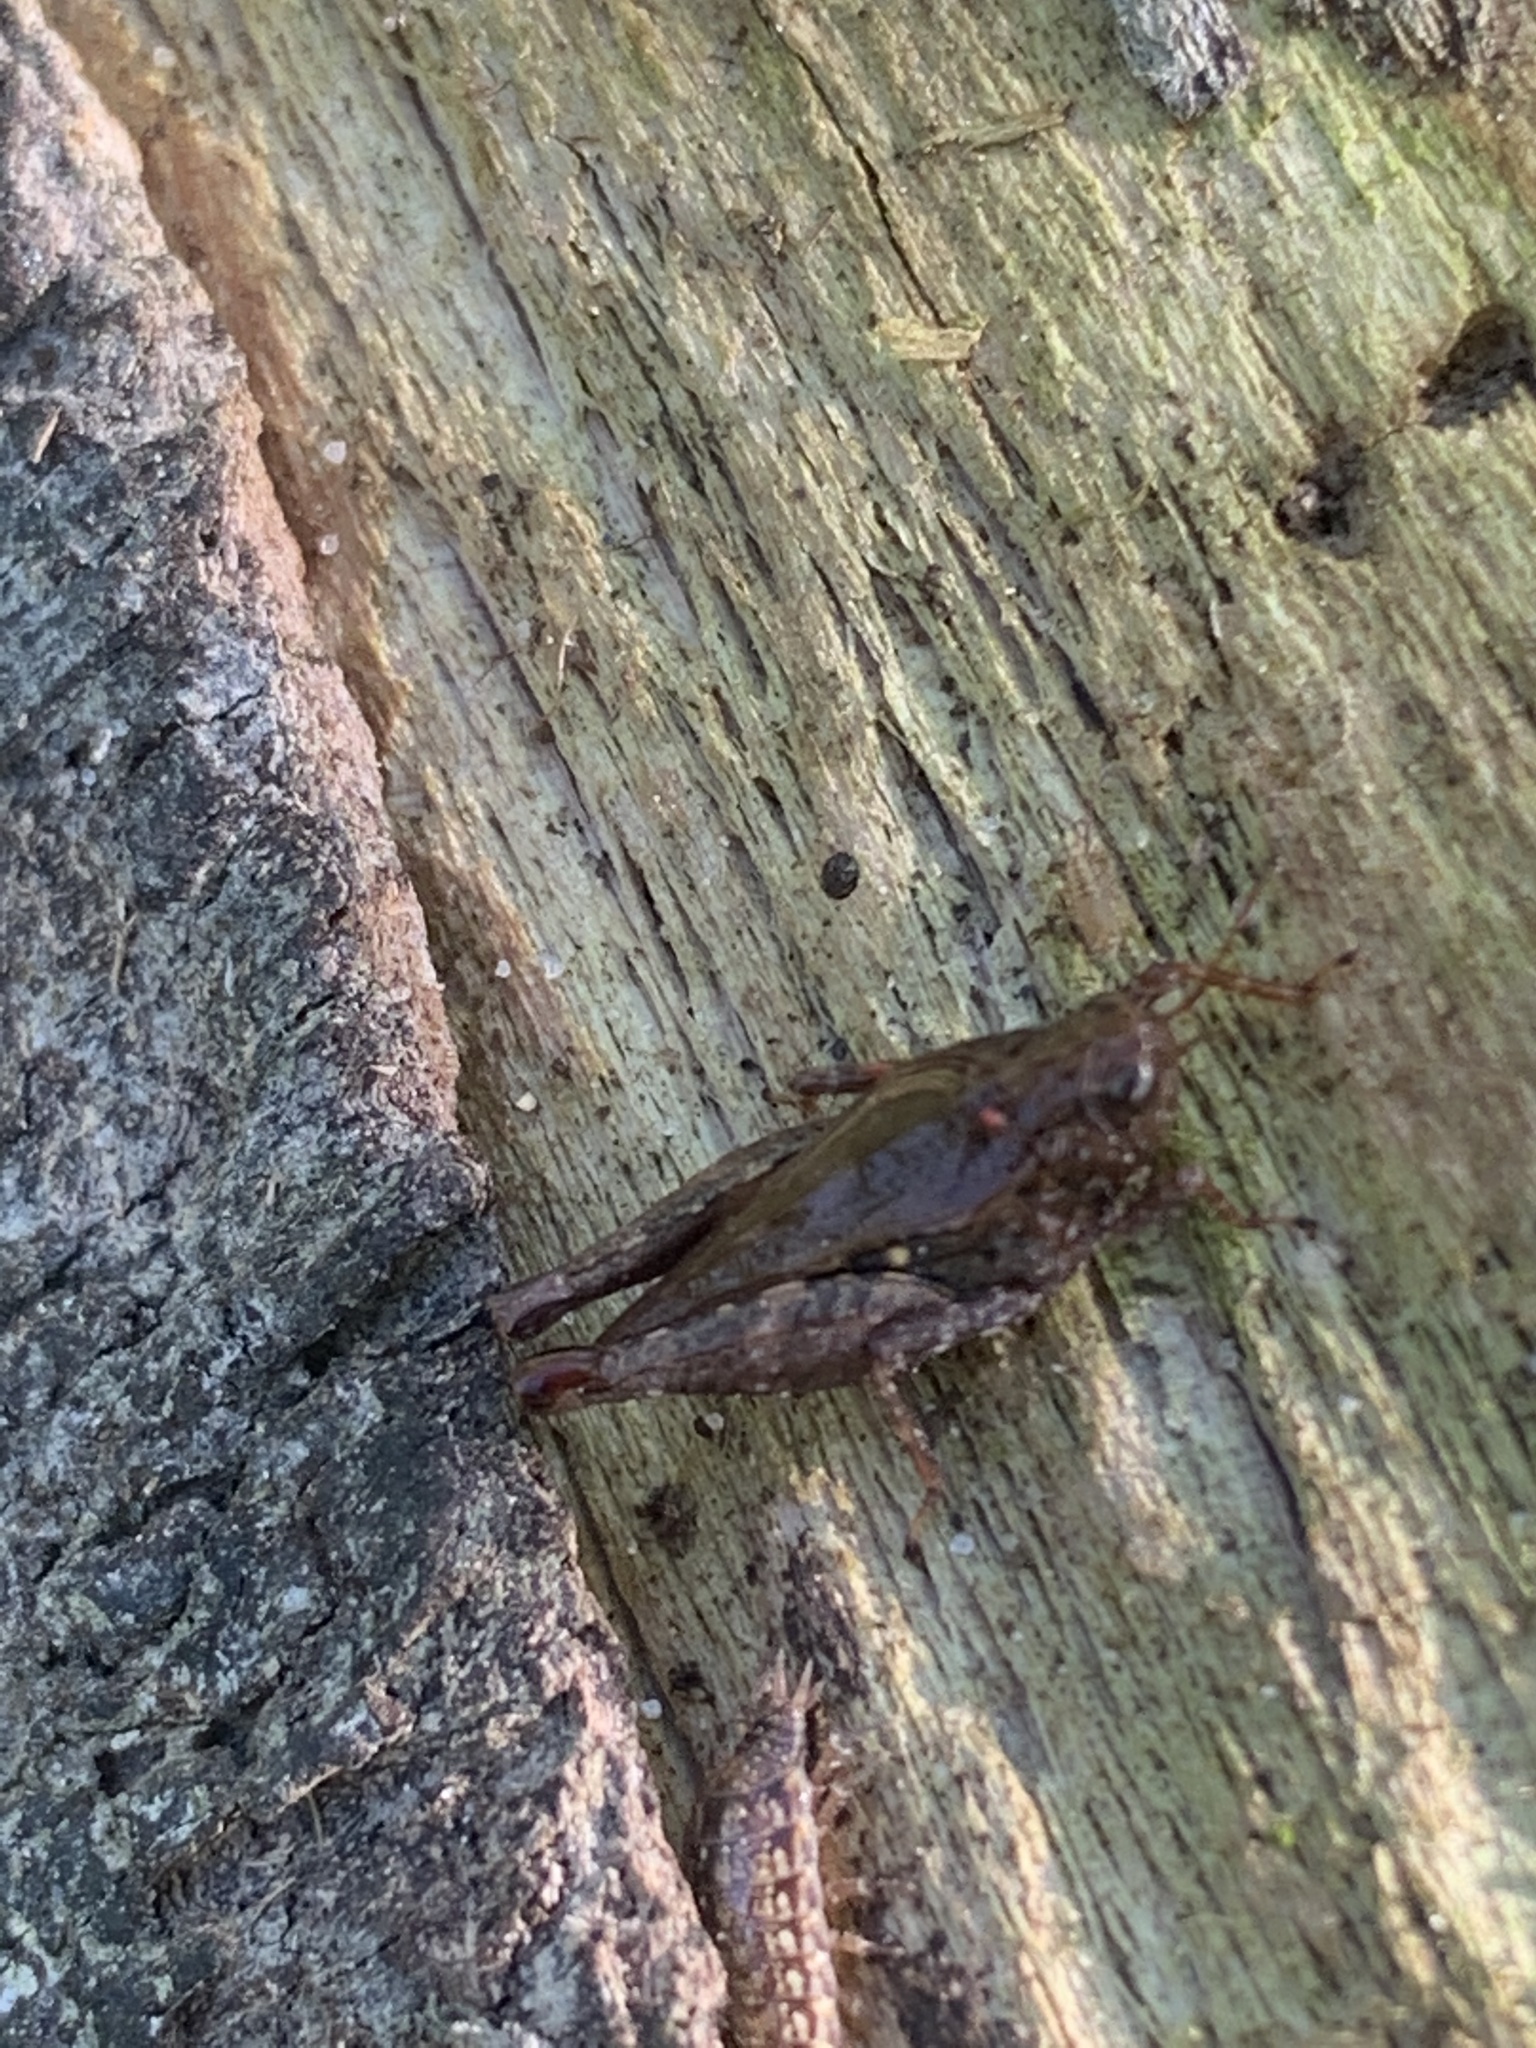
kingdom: Animalia
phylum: Arthropoda
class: Insecta
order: Orthoptera
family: Tetrigidae
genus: Tettigidea
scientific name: Tettigidea laterale
